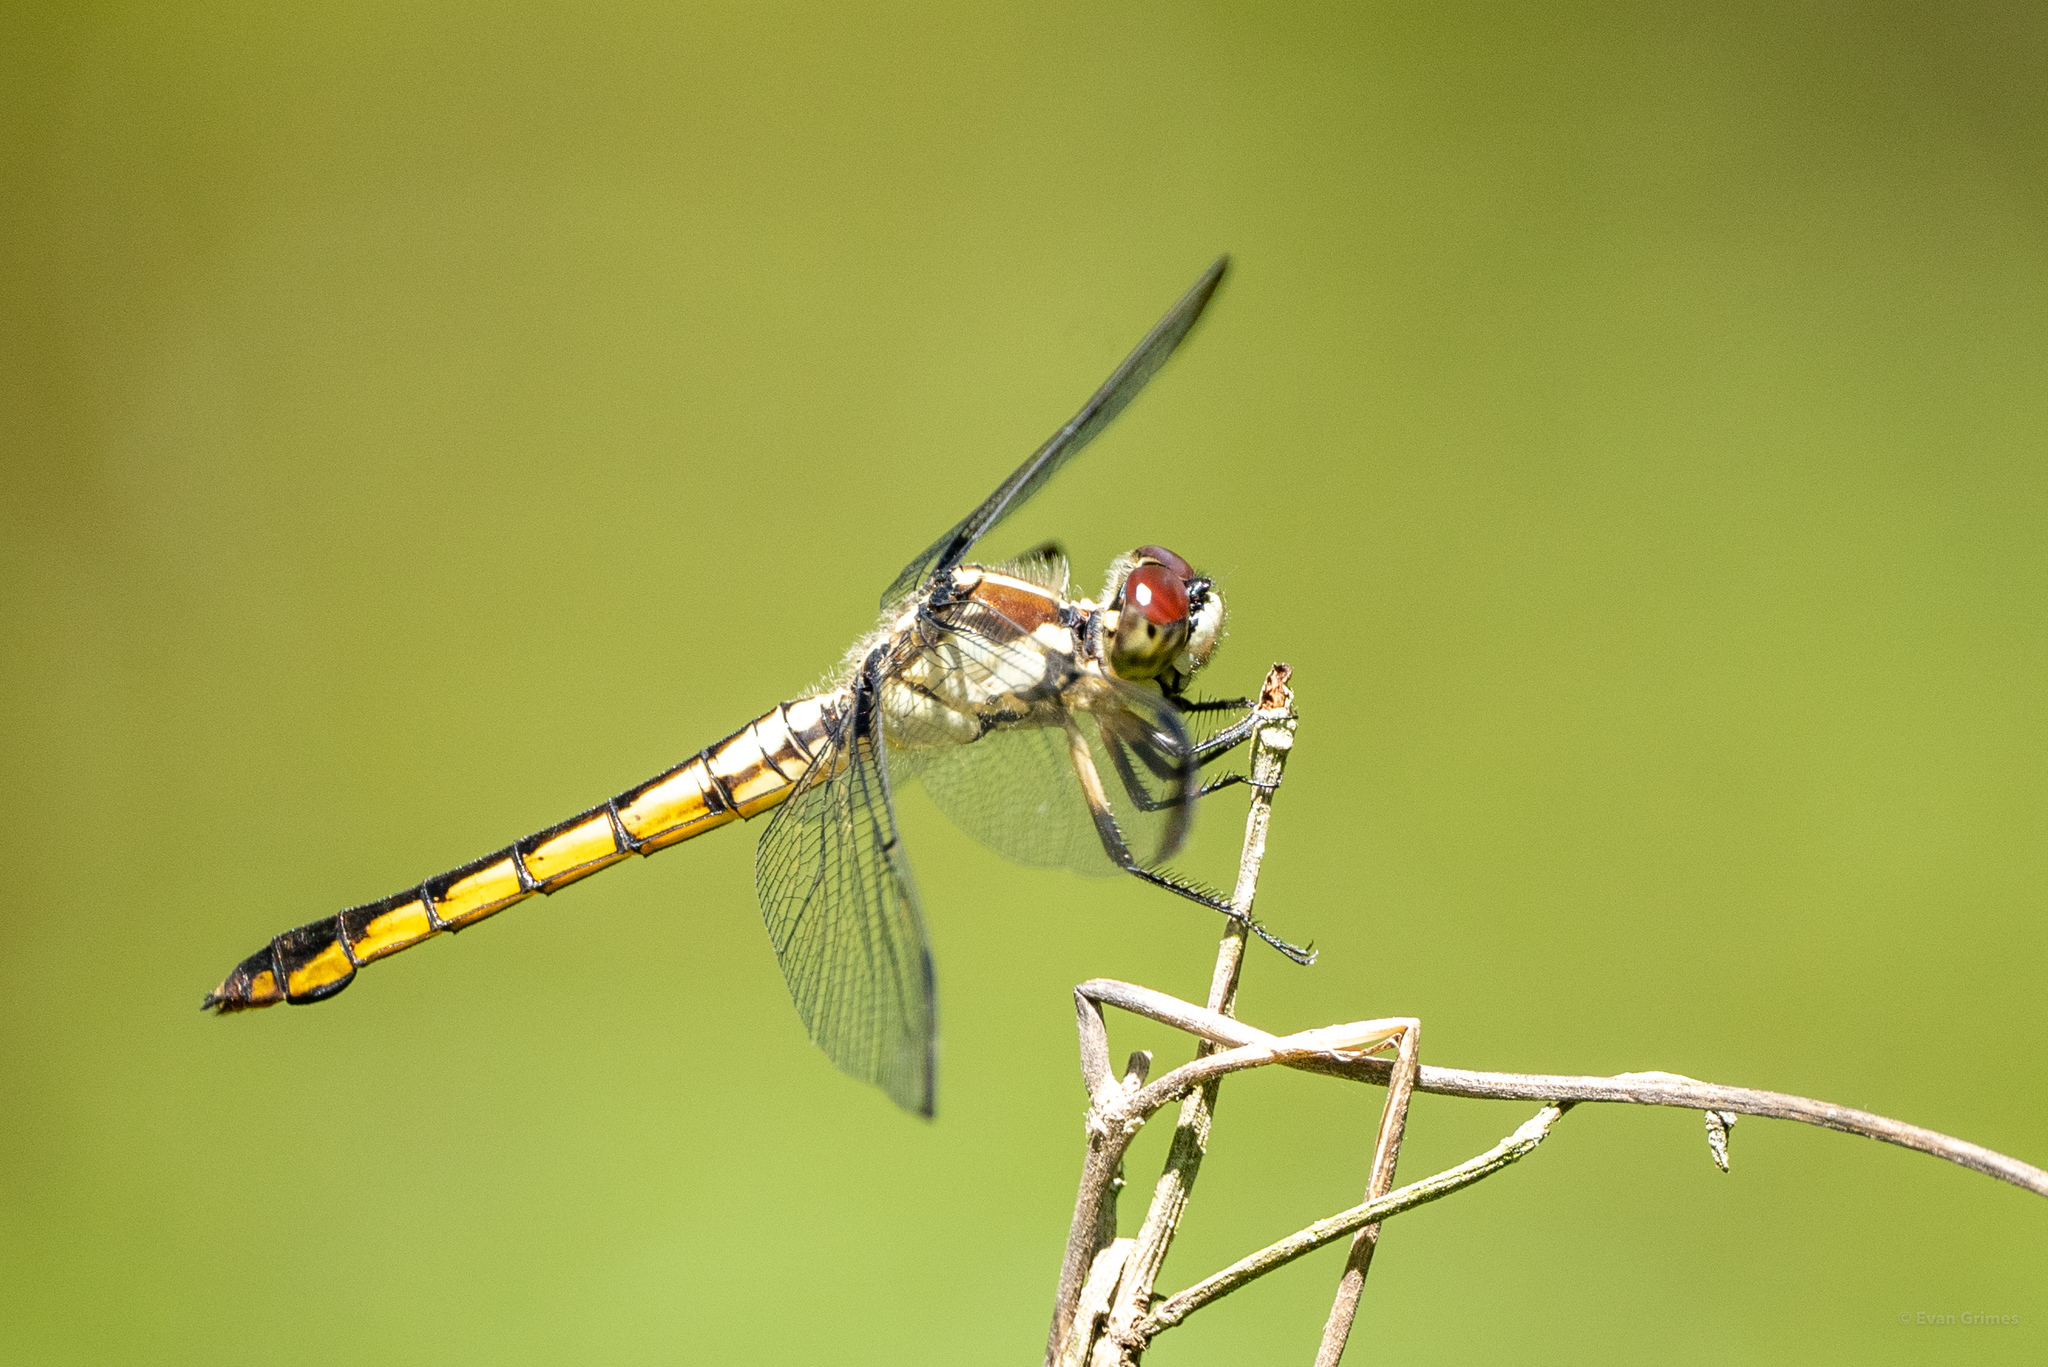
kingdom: Animalia
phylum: Arthropoda
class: Insecta
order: Odonata
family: Libellulidae
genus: Libellula
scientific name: Libellula vibrans
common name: Great blue skimmer
